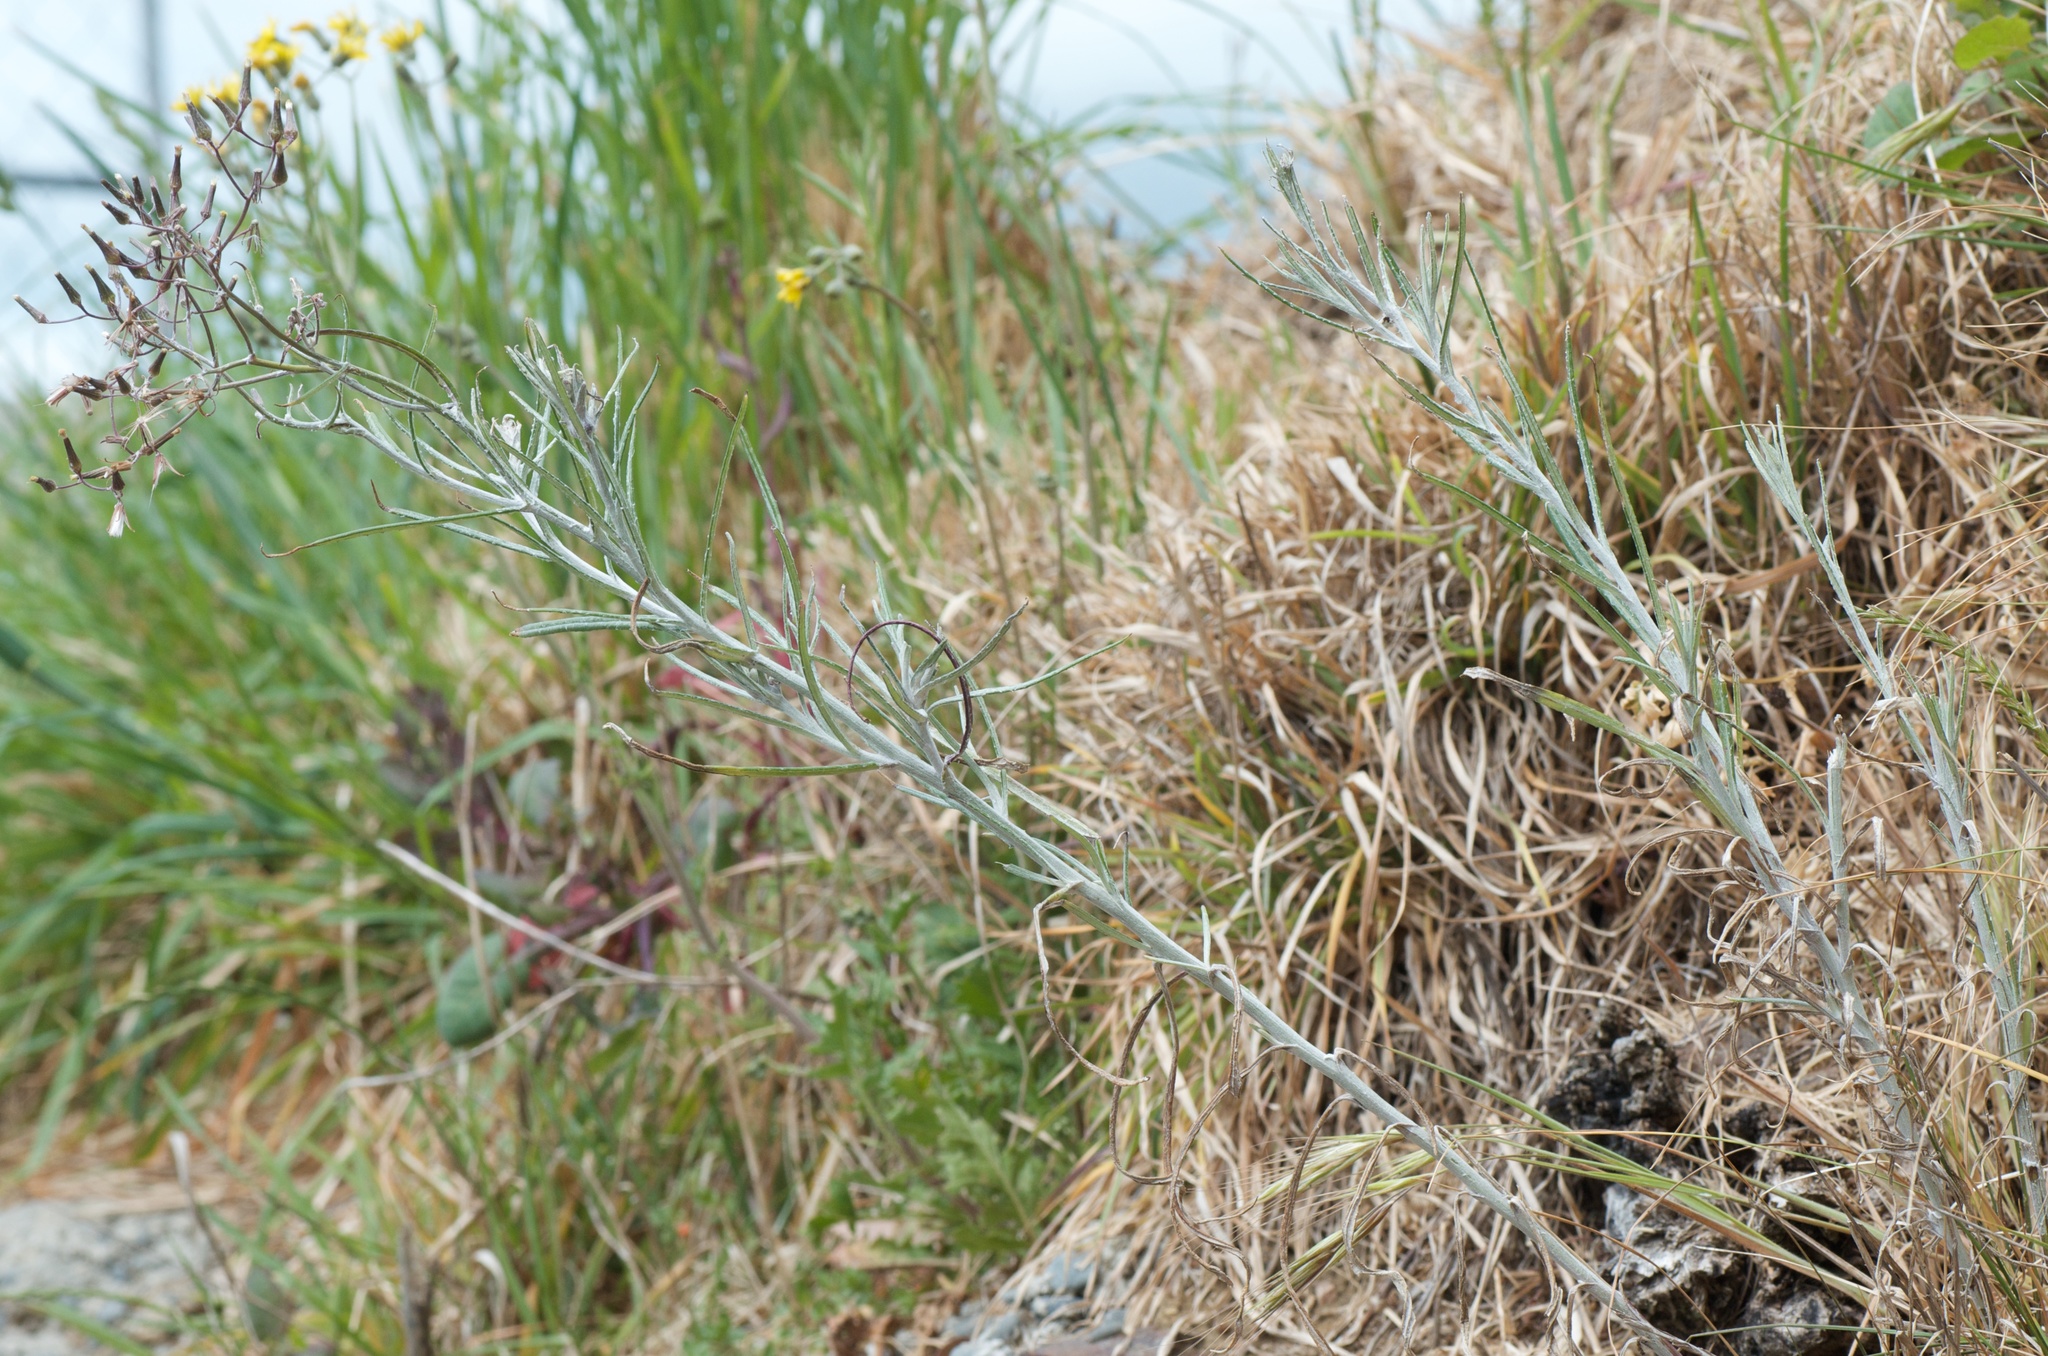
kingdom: Plantae
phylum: Tracheophyta
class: Magnoliopsida
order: Asterales
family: Asteraceae
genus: Senecio
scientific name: Senecio quadridentatus
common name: Cotton fireweed
